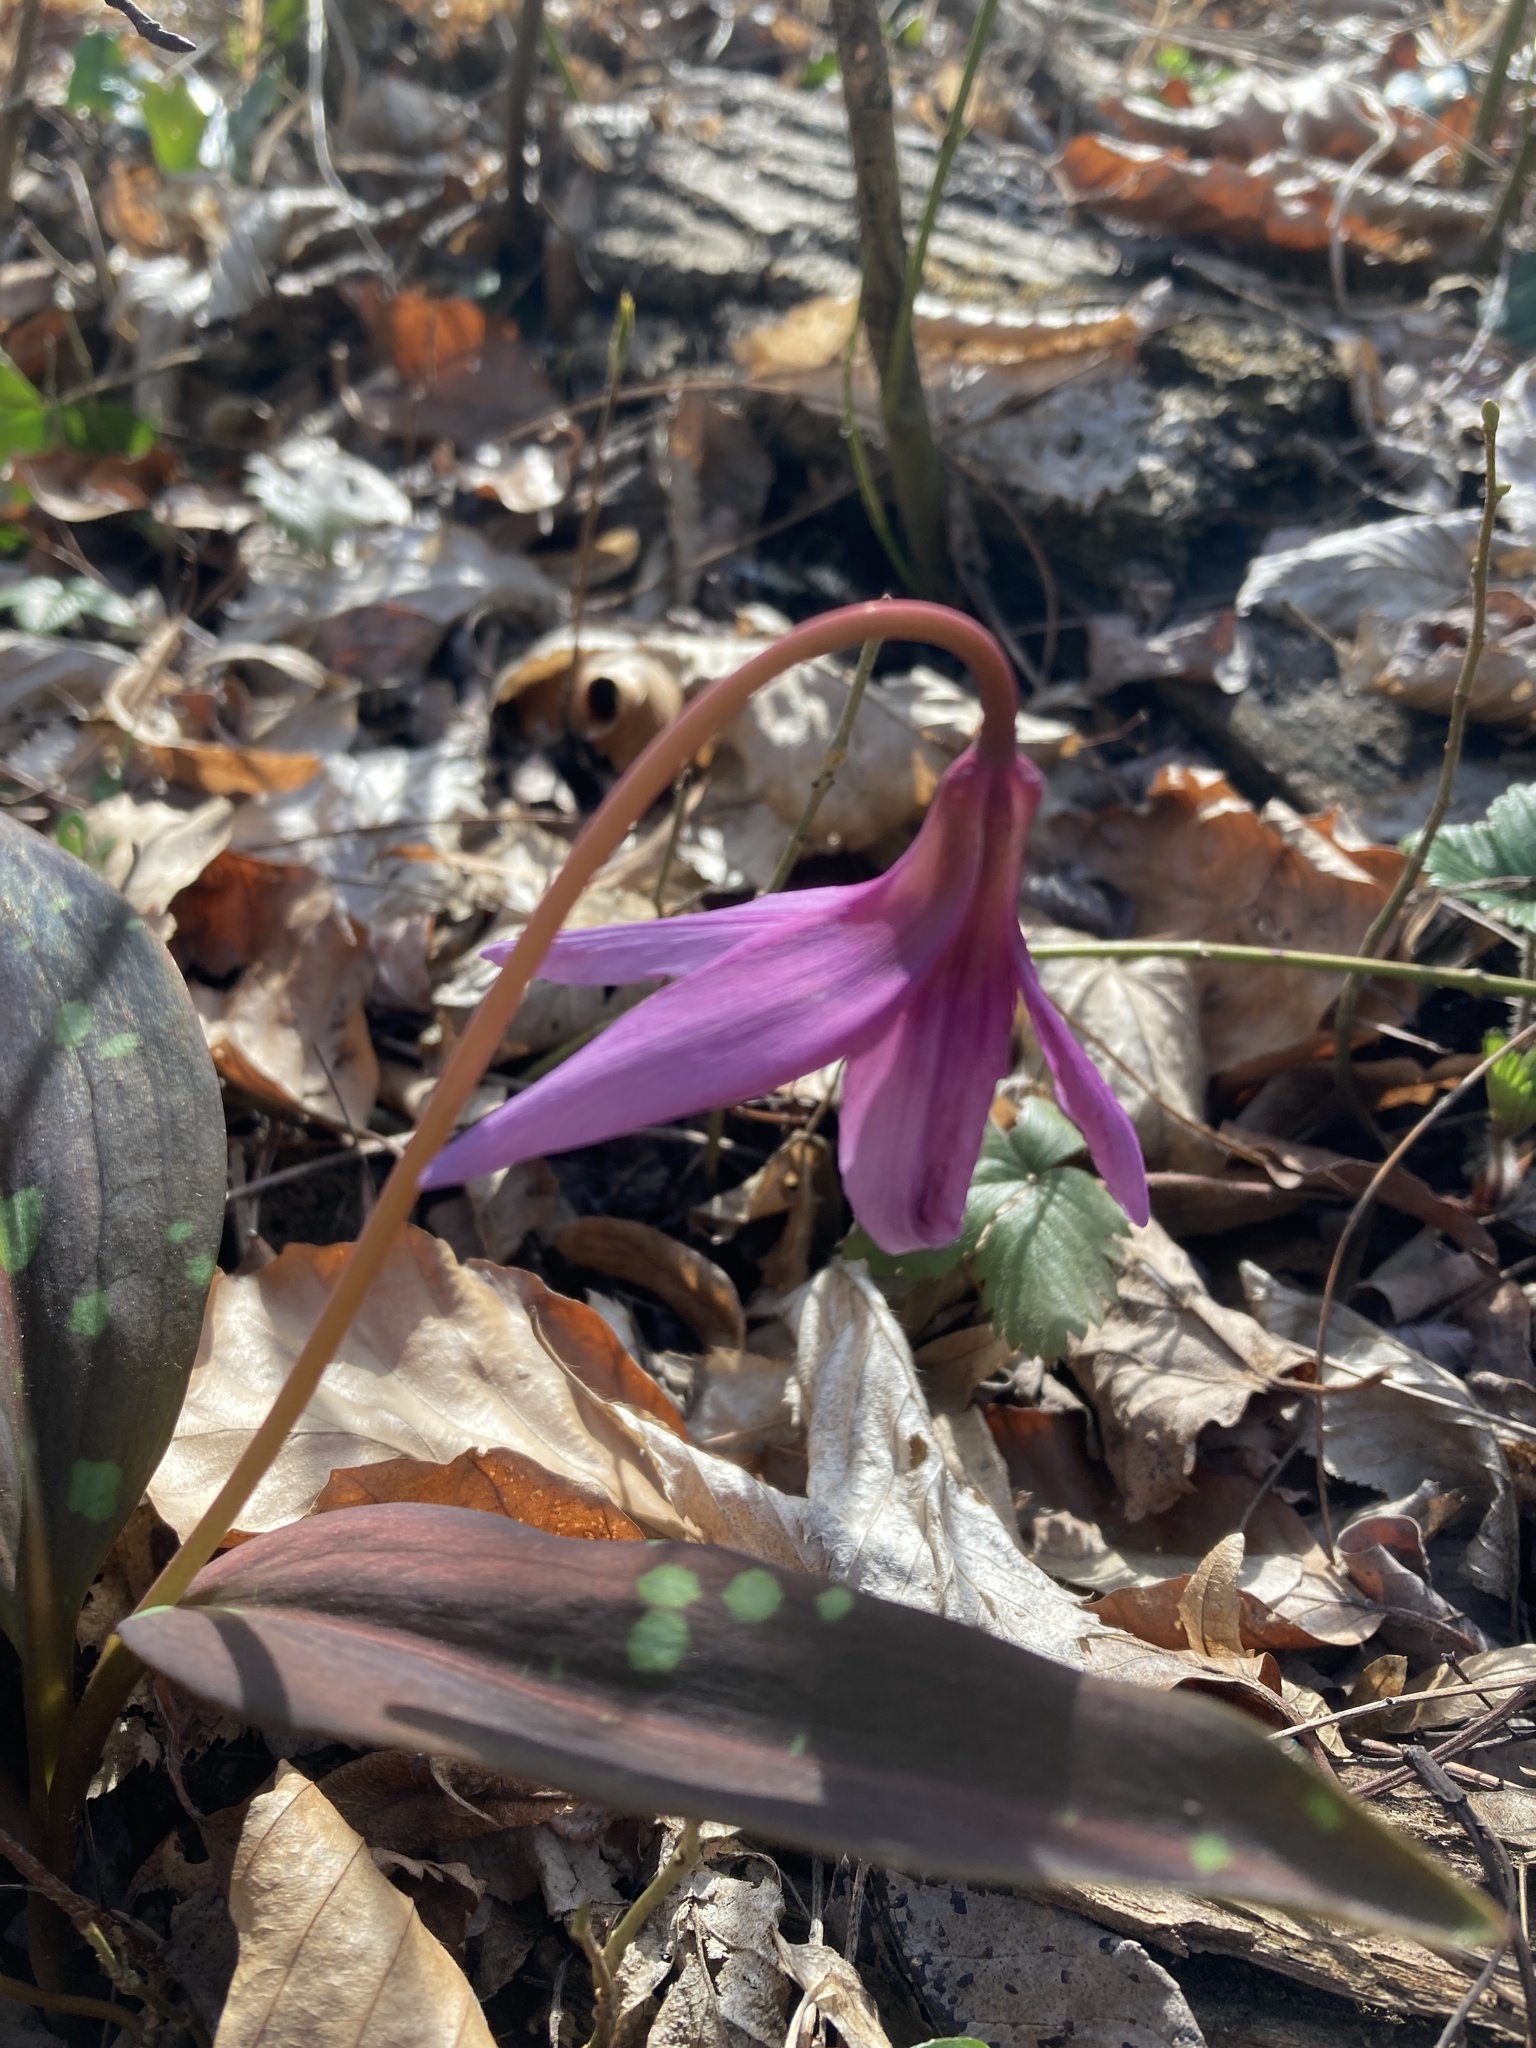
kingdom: Plantae
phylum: Tracheophyta
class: Liliopsida
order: Liliales
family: Liliaceae
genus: Erythronium
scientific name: Erythronium dens-canis
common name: Dog's-tooth-violet
